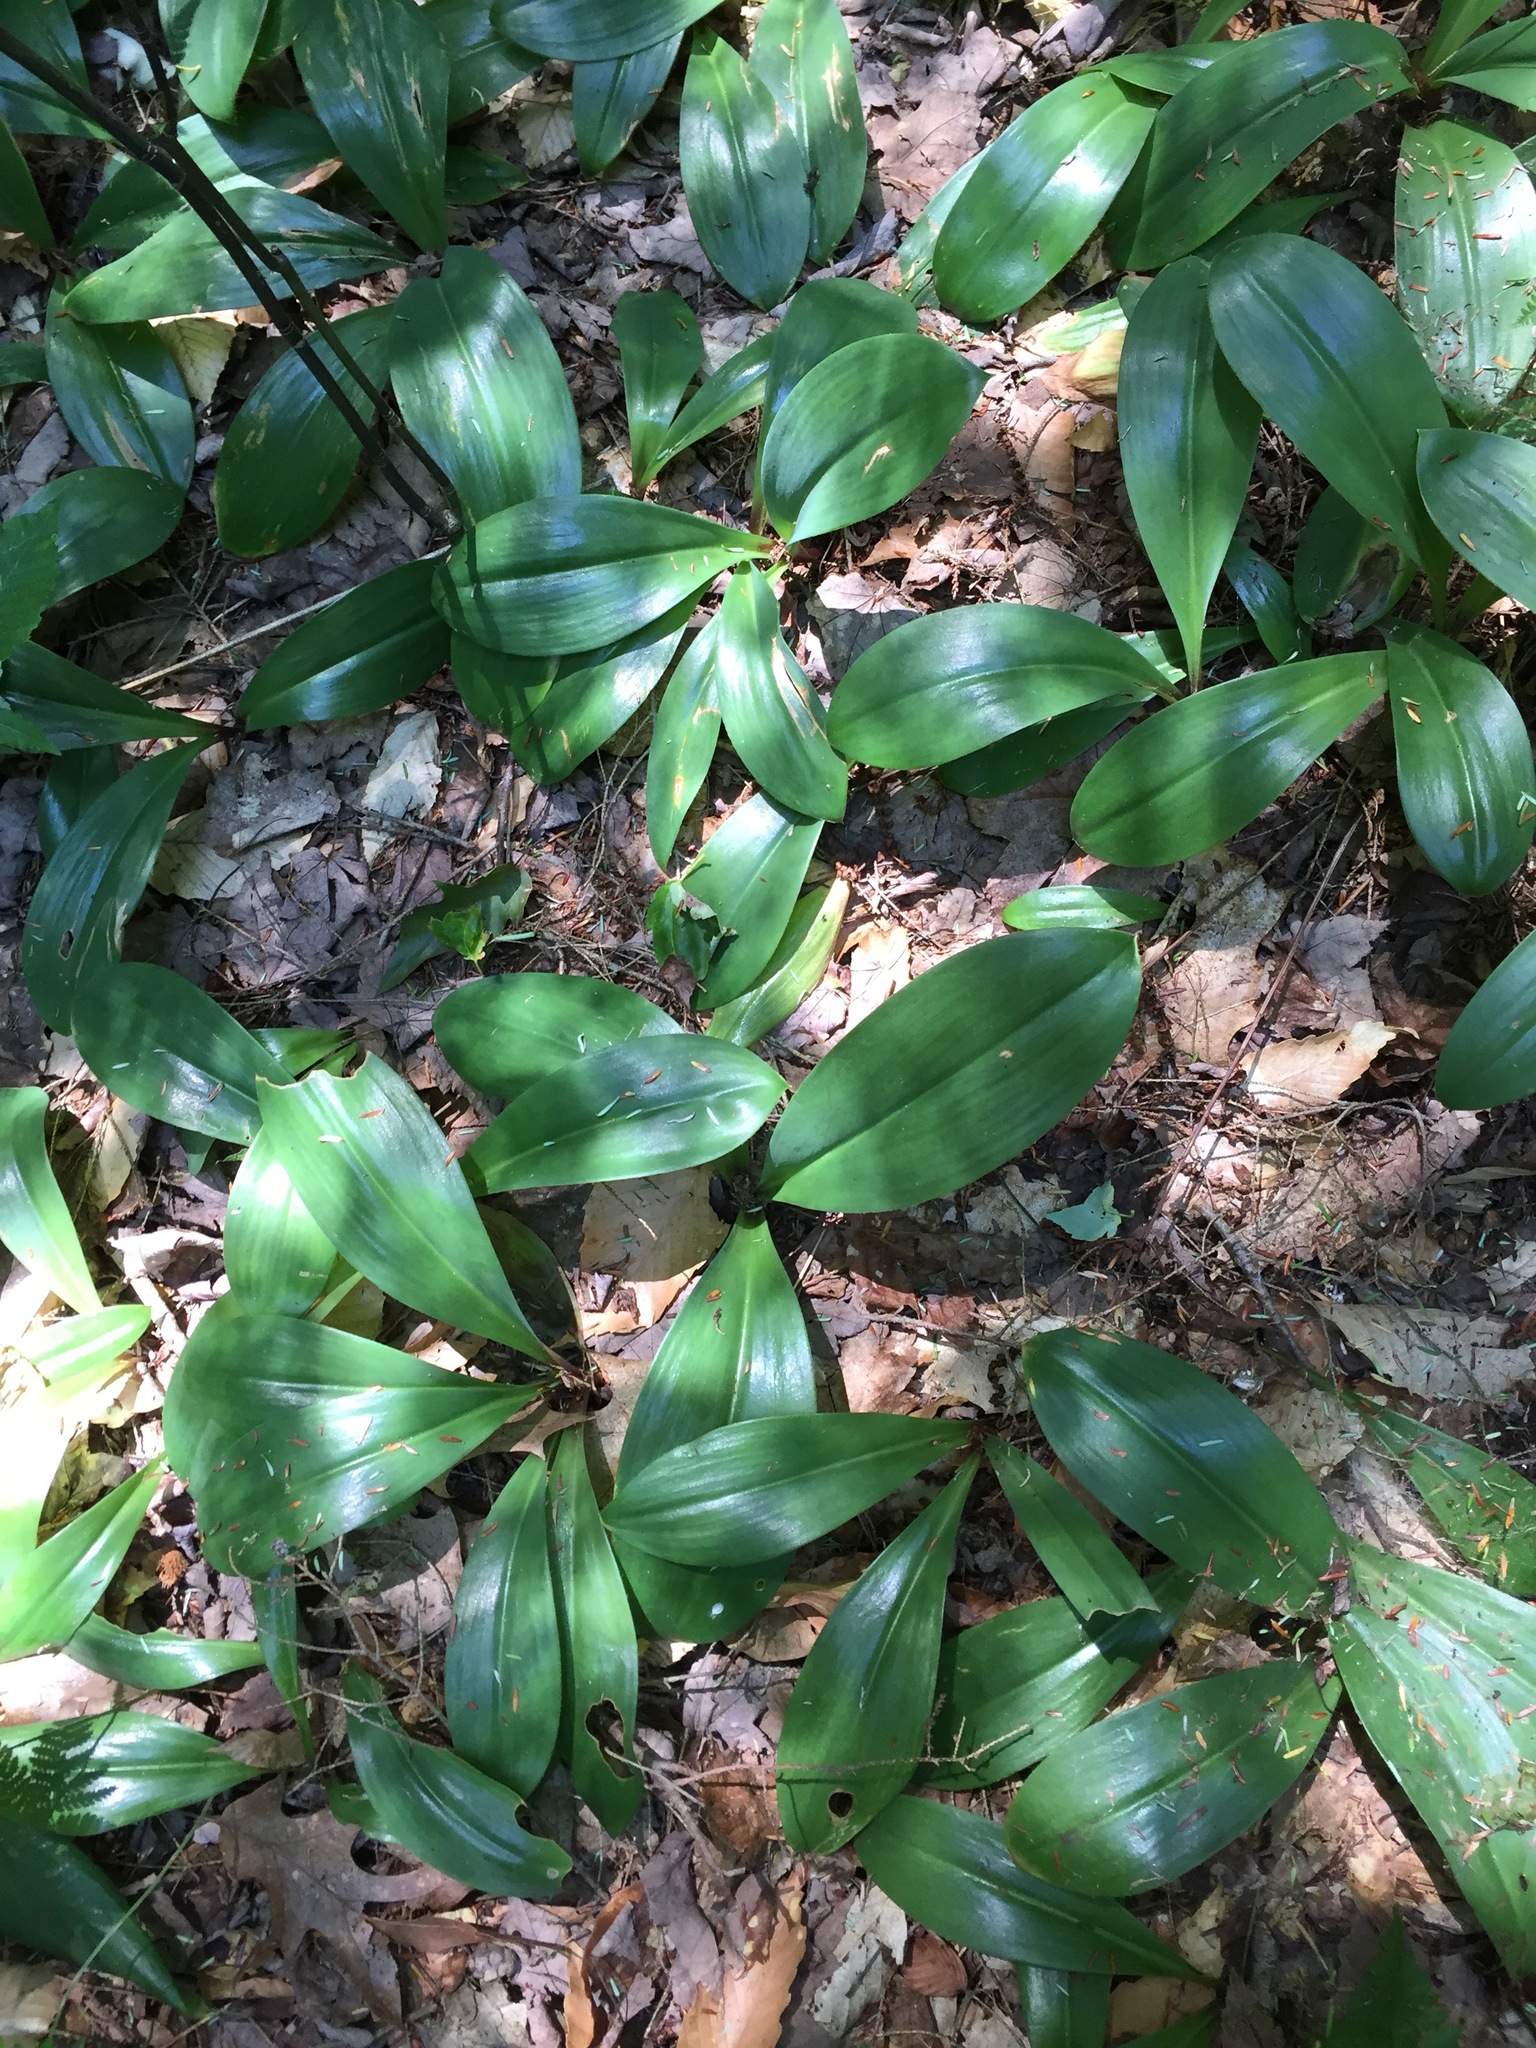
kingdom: Plantae
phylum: Tracheophyta
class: Liliopsida
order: Liliales
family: Liliaceae
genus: Clintonia
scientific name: Clintonia borealis
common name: Yellow clintonia
